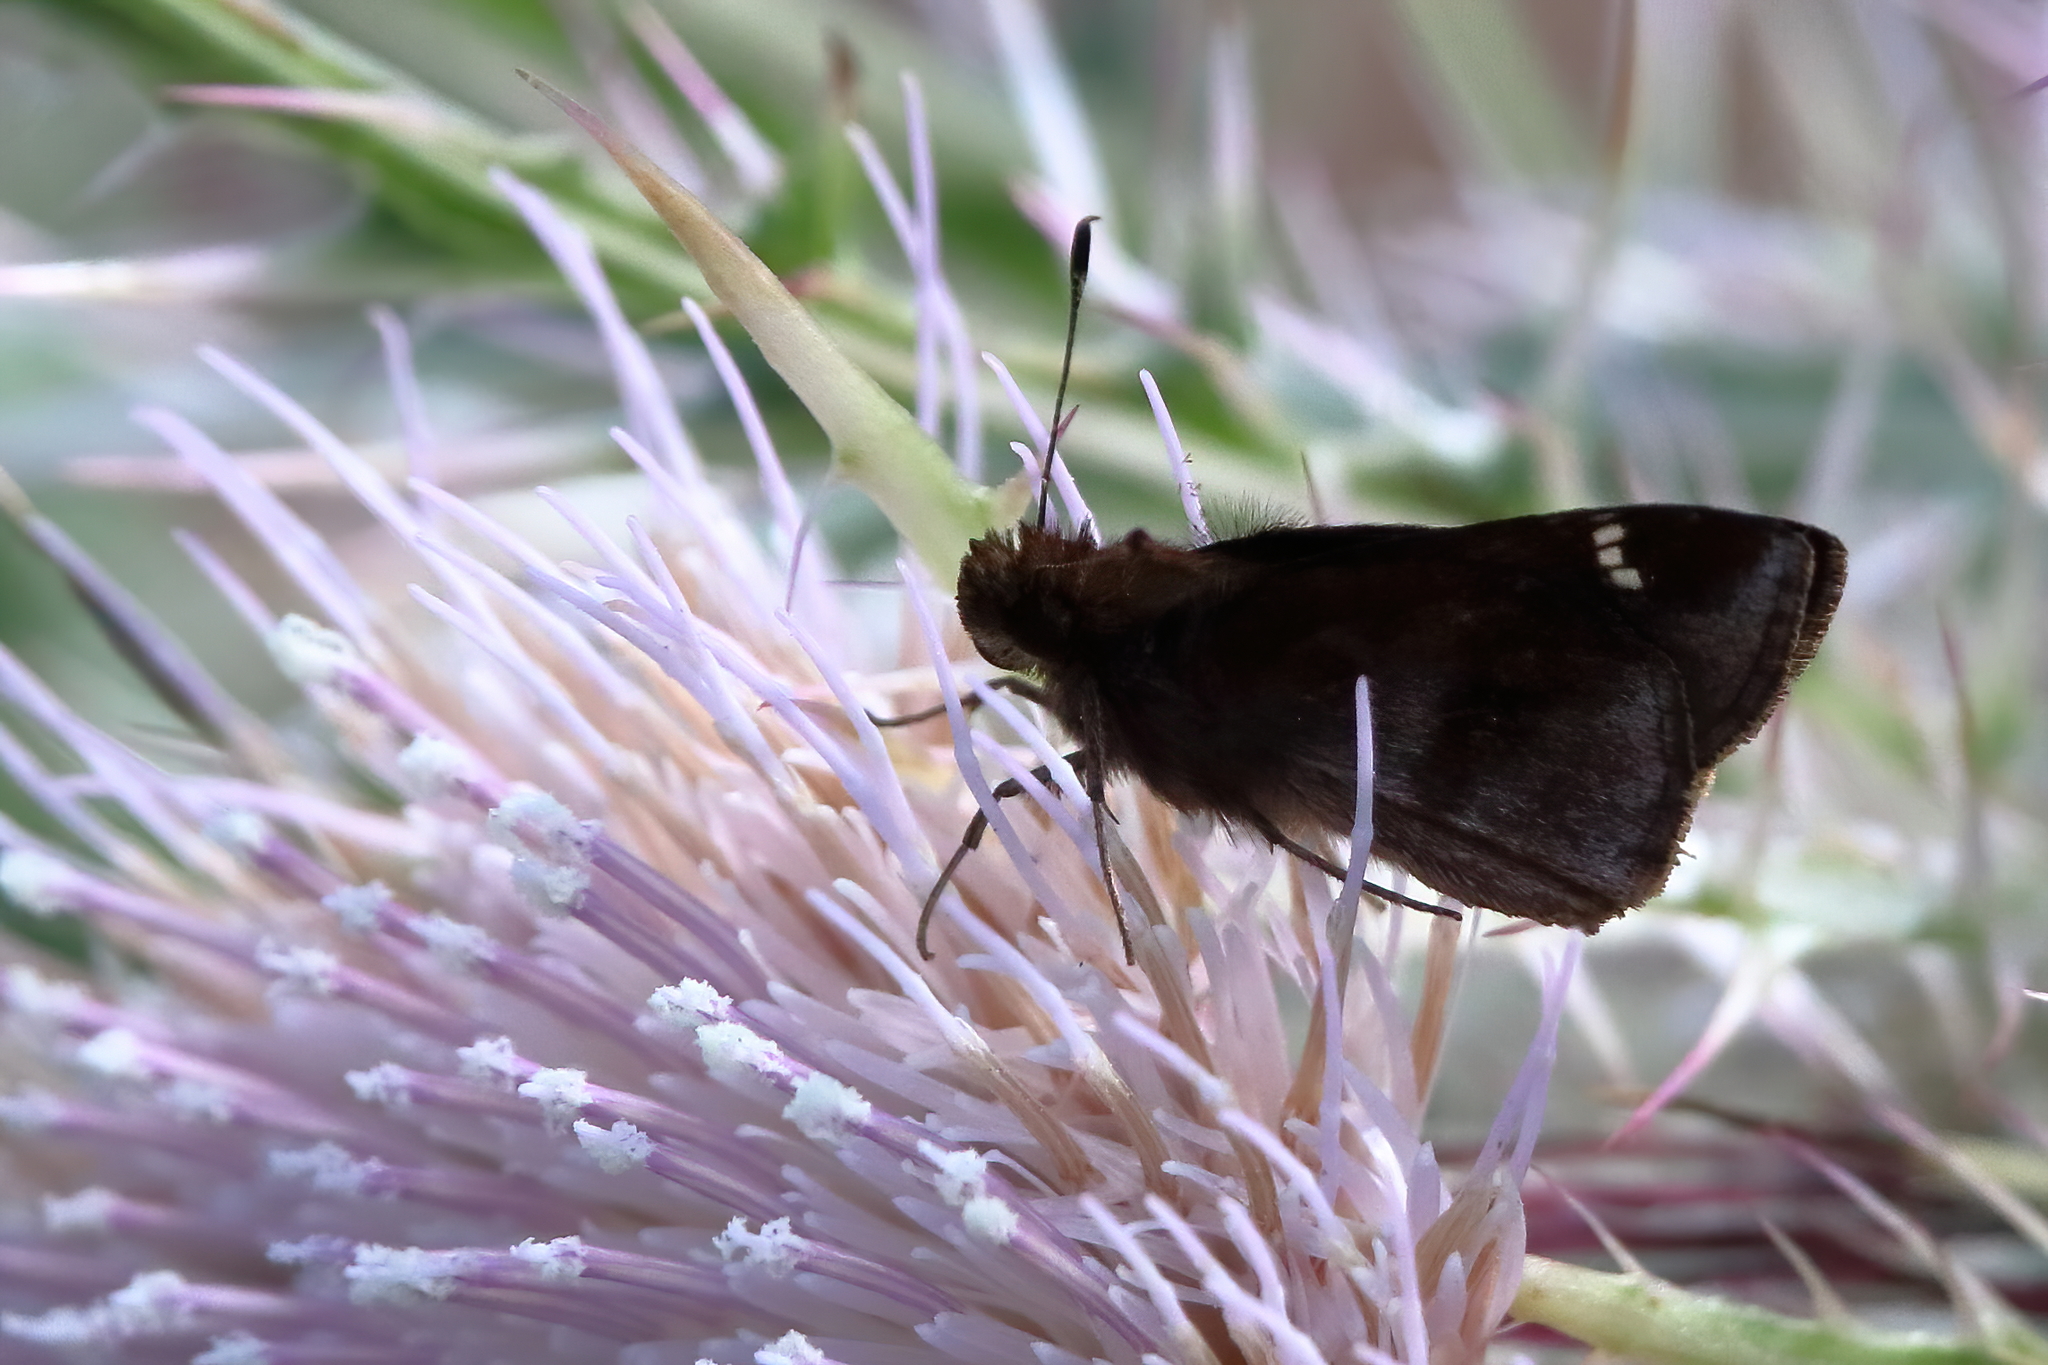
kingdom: Animalia
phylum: Arthropoda
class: Insecta
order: Lepidoptera
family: Hesperiidae
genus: Lerema
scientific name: Lerema accius
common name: Clouded skipper
